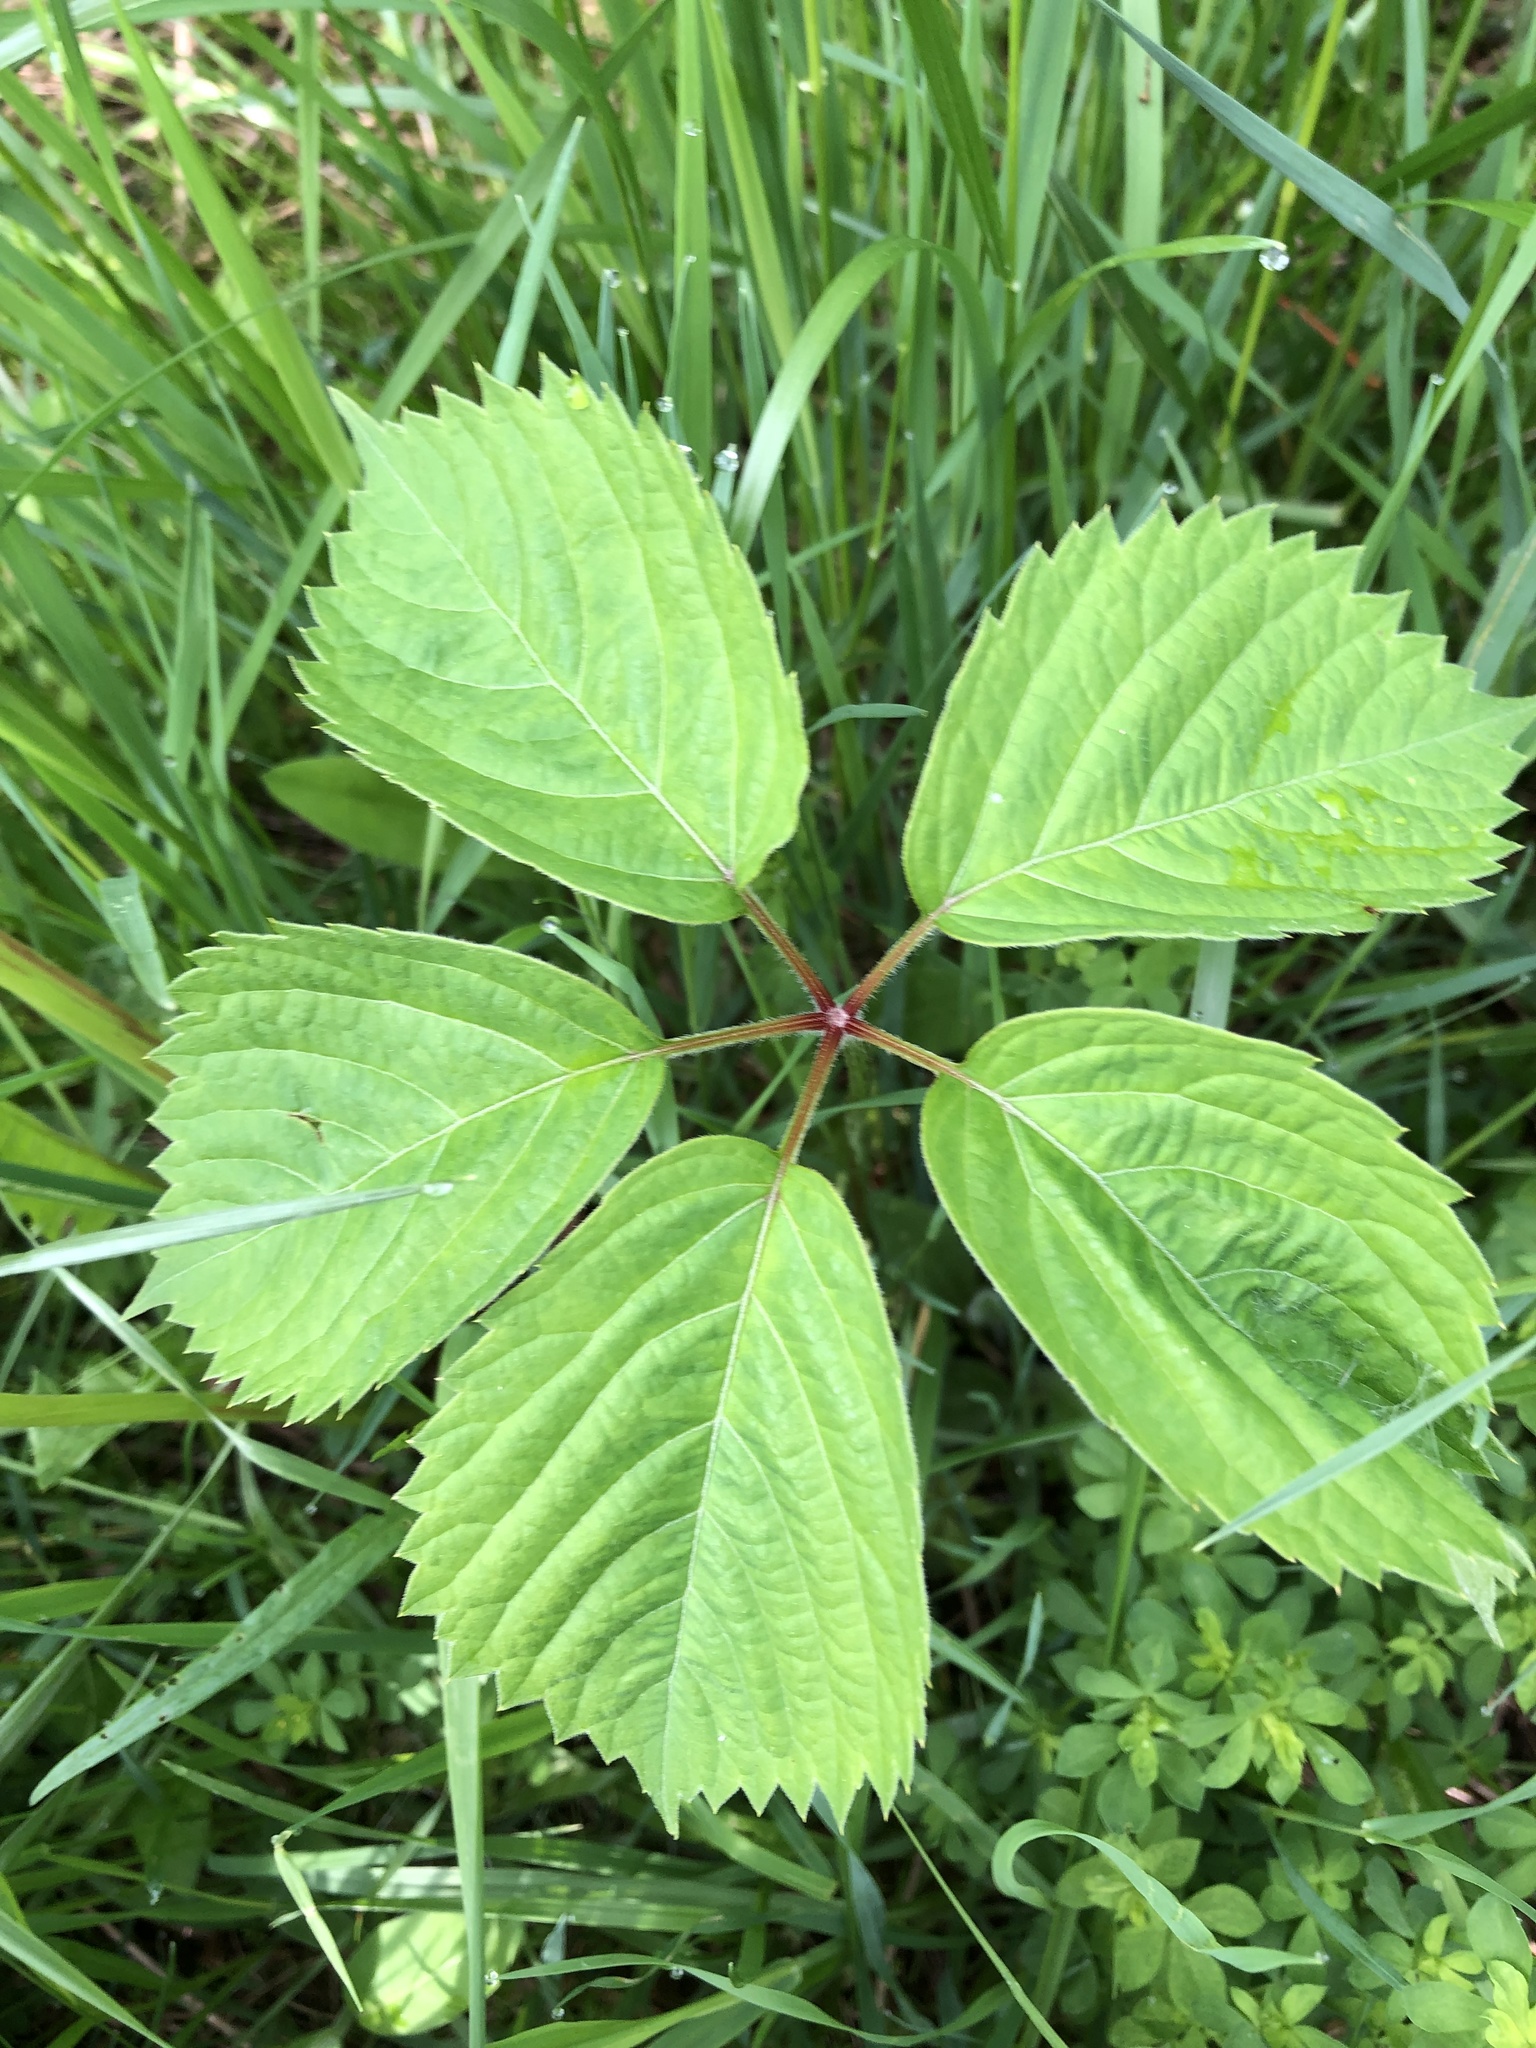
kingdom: Plantae
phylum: Tracheophyta
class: Magnoliopsida
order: Vitales
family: Vitaceae
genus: Parthenocissus
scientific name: Parthenocissus inserta
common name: False virginia-creeper
